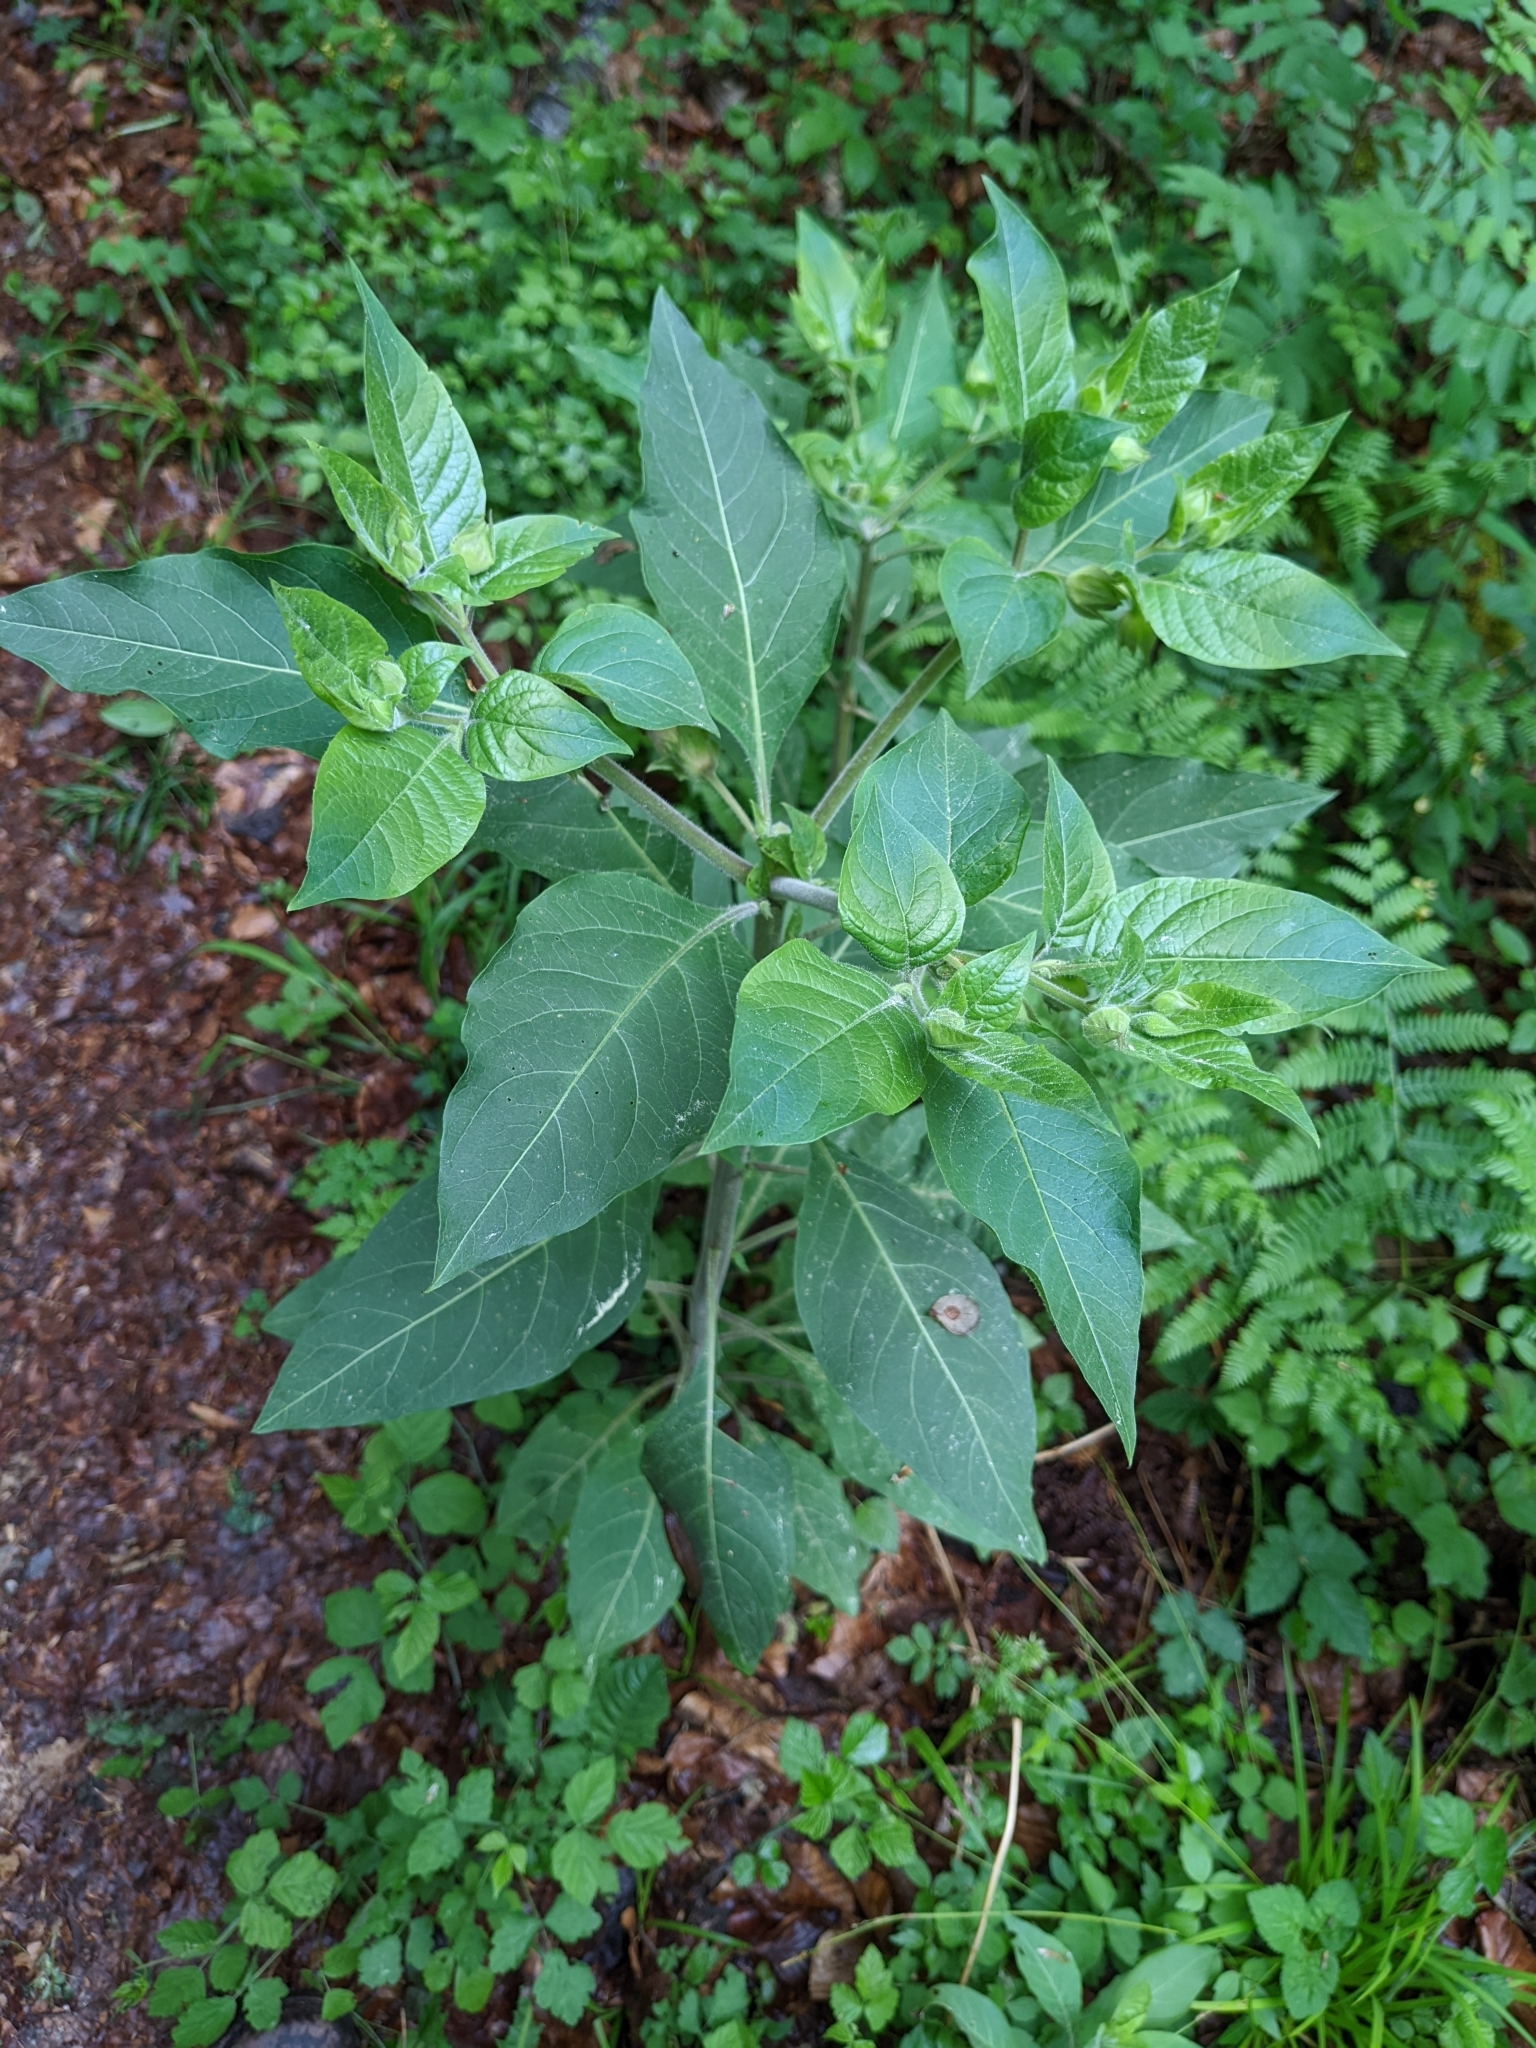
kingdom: Plantae
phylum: Tracheophyta
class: Magnoliopsida
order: Solanales
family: Solanaceae
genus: Atropa
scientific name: Atropa belladonna
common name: Deadly nightshade
